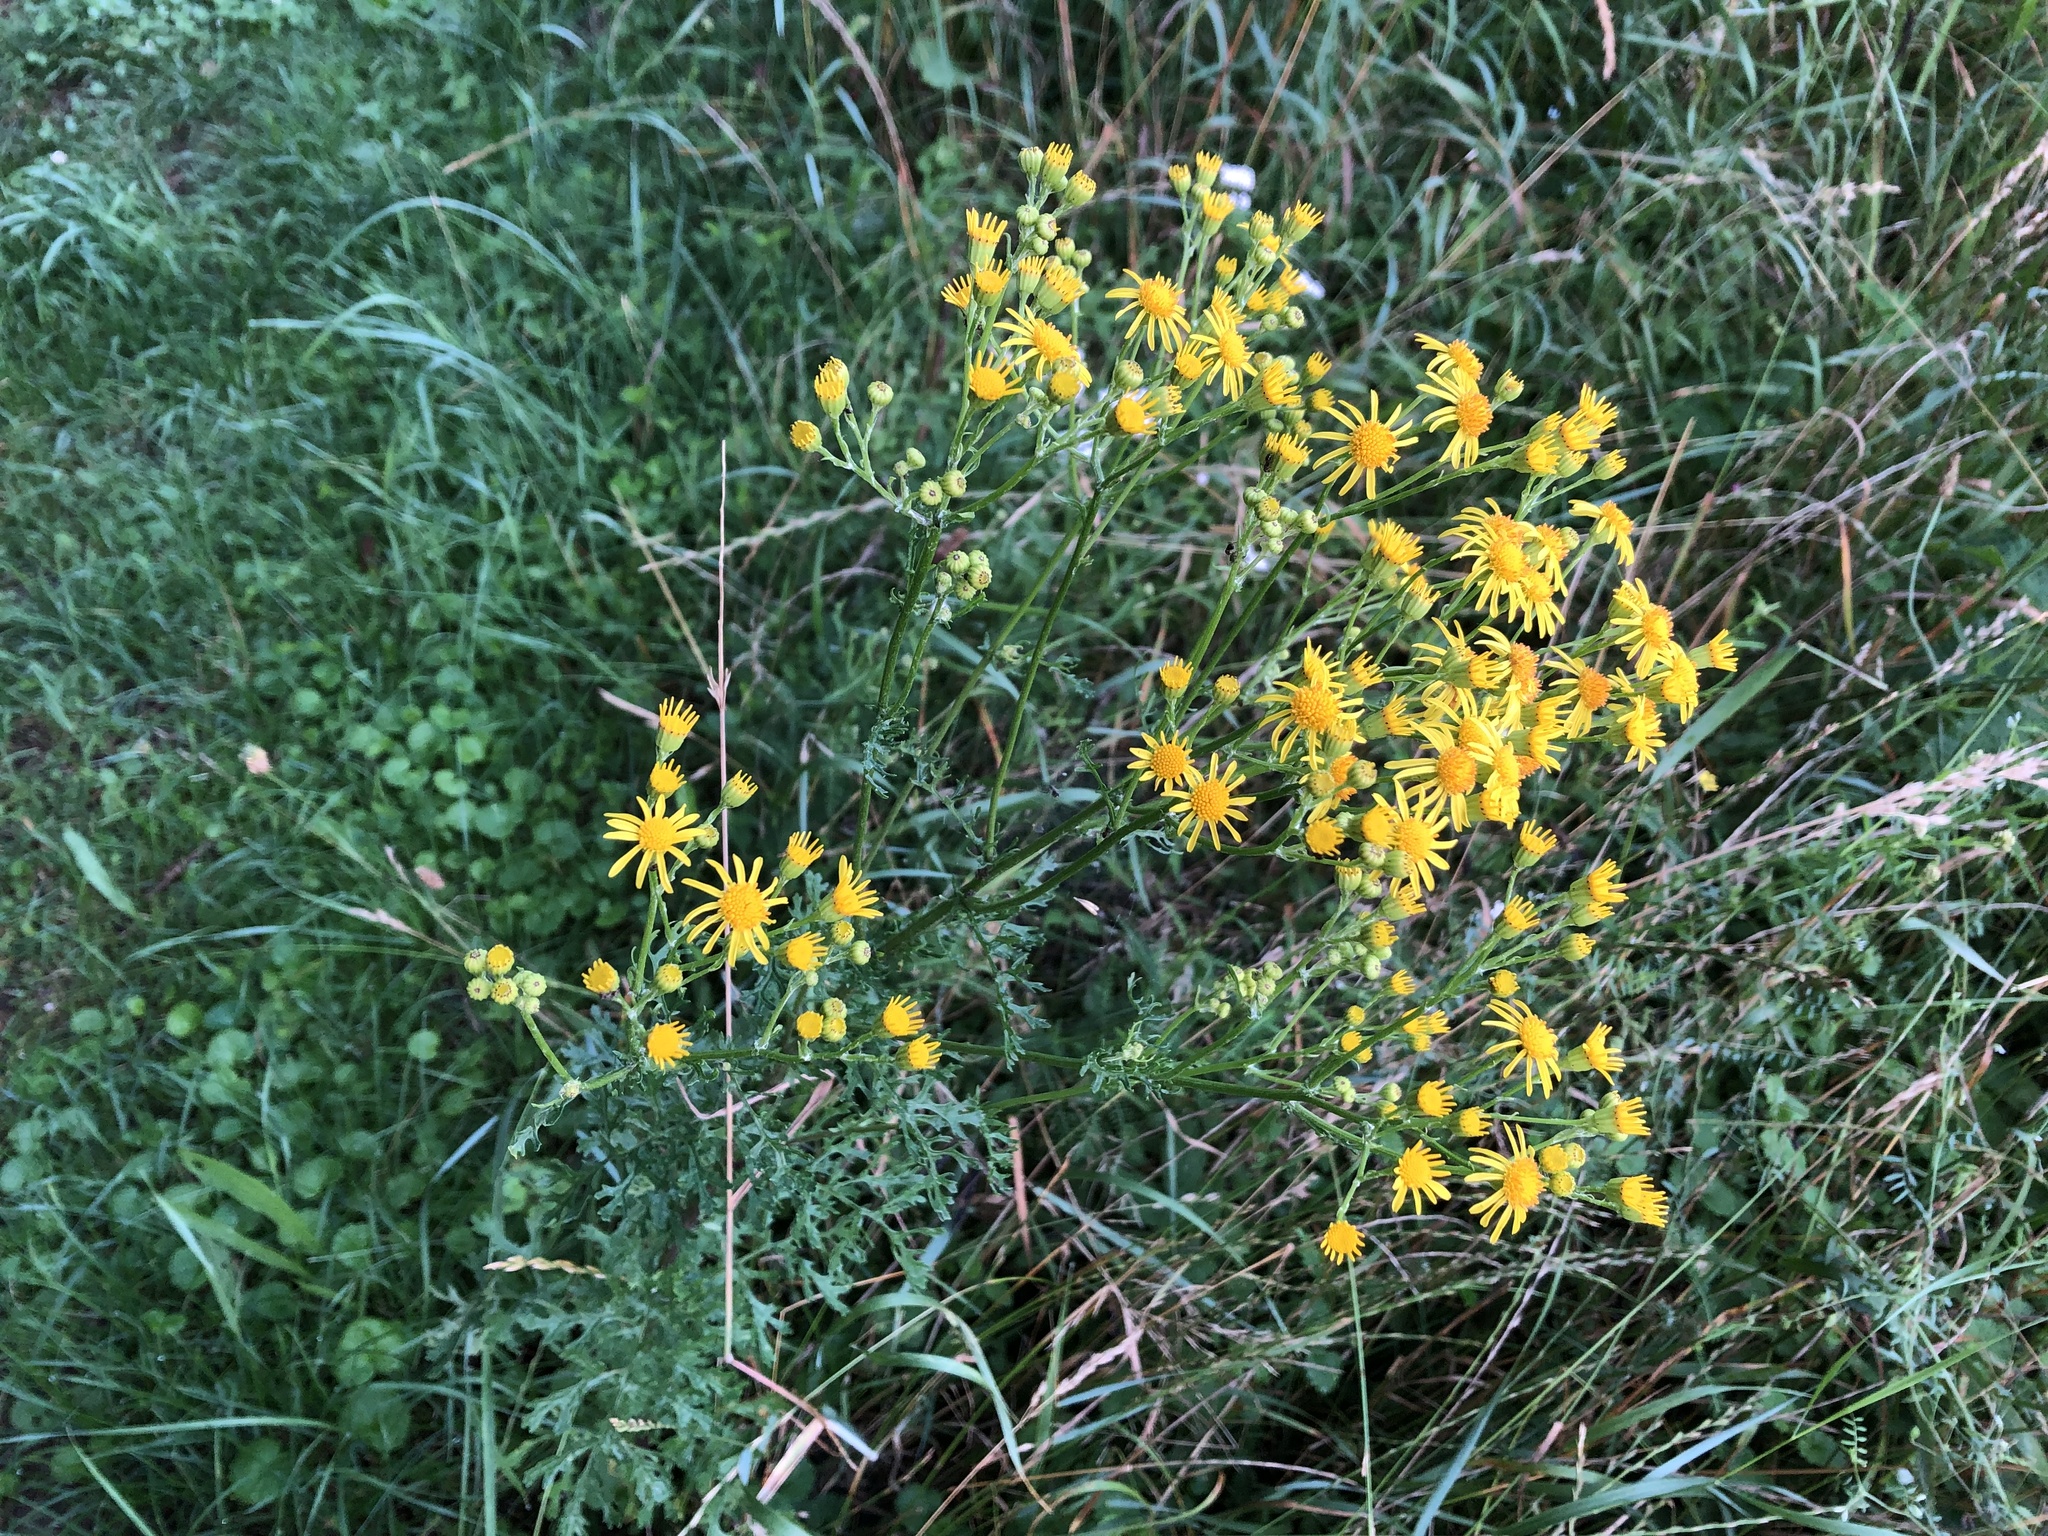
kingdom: Plantae
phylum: Tracheophyta
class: Magnoliopsida
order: Asterales
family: Asteraceae
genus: Jacobaea
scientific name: Jacobaea vulgaris
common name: Stinking willie
